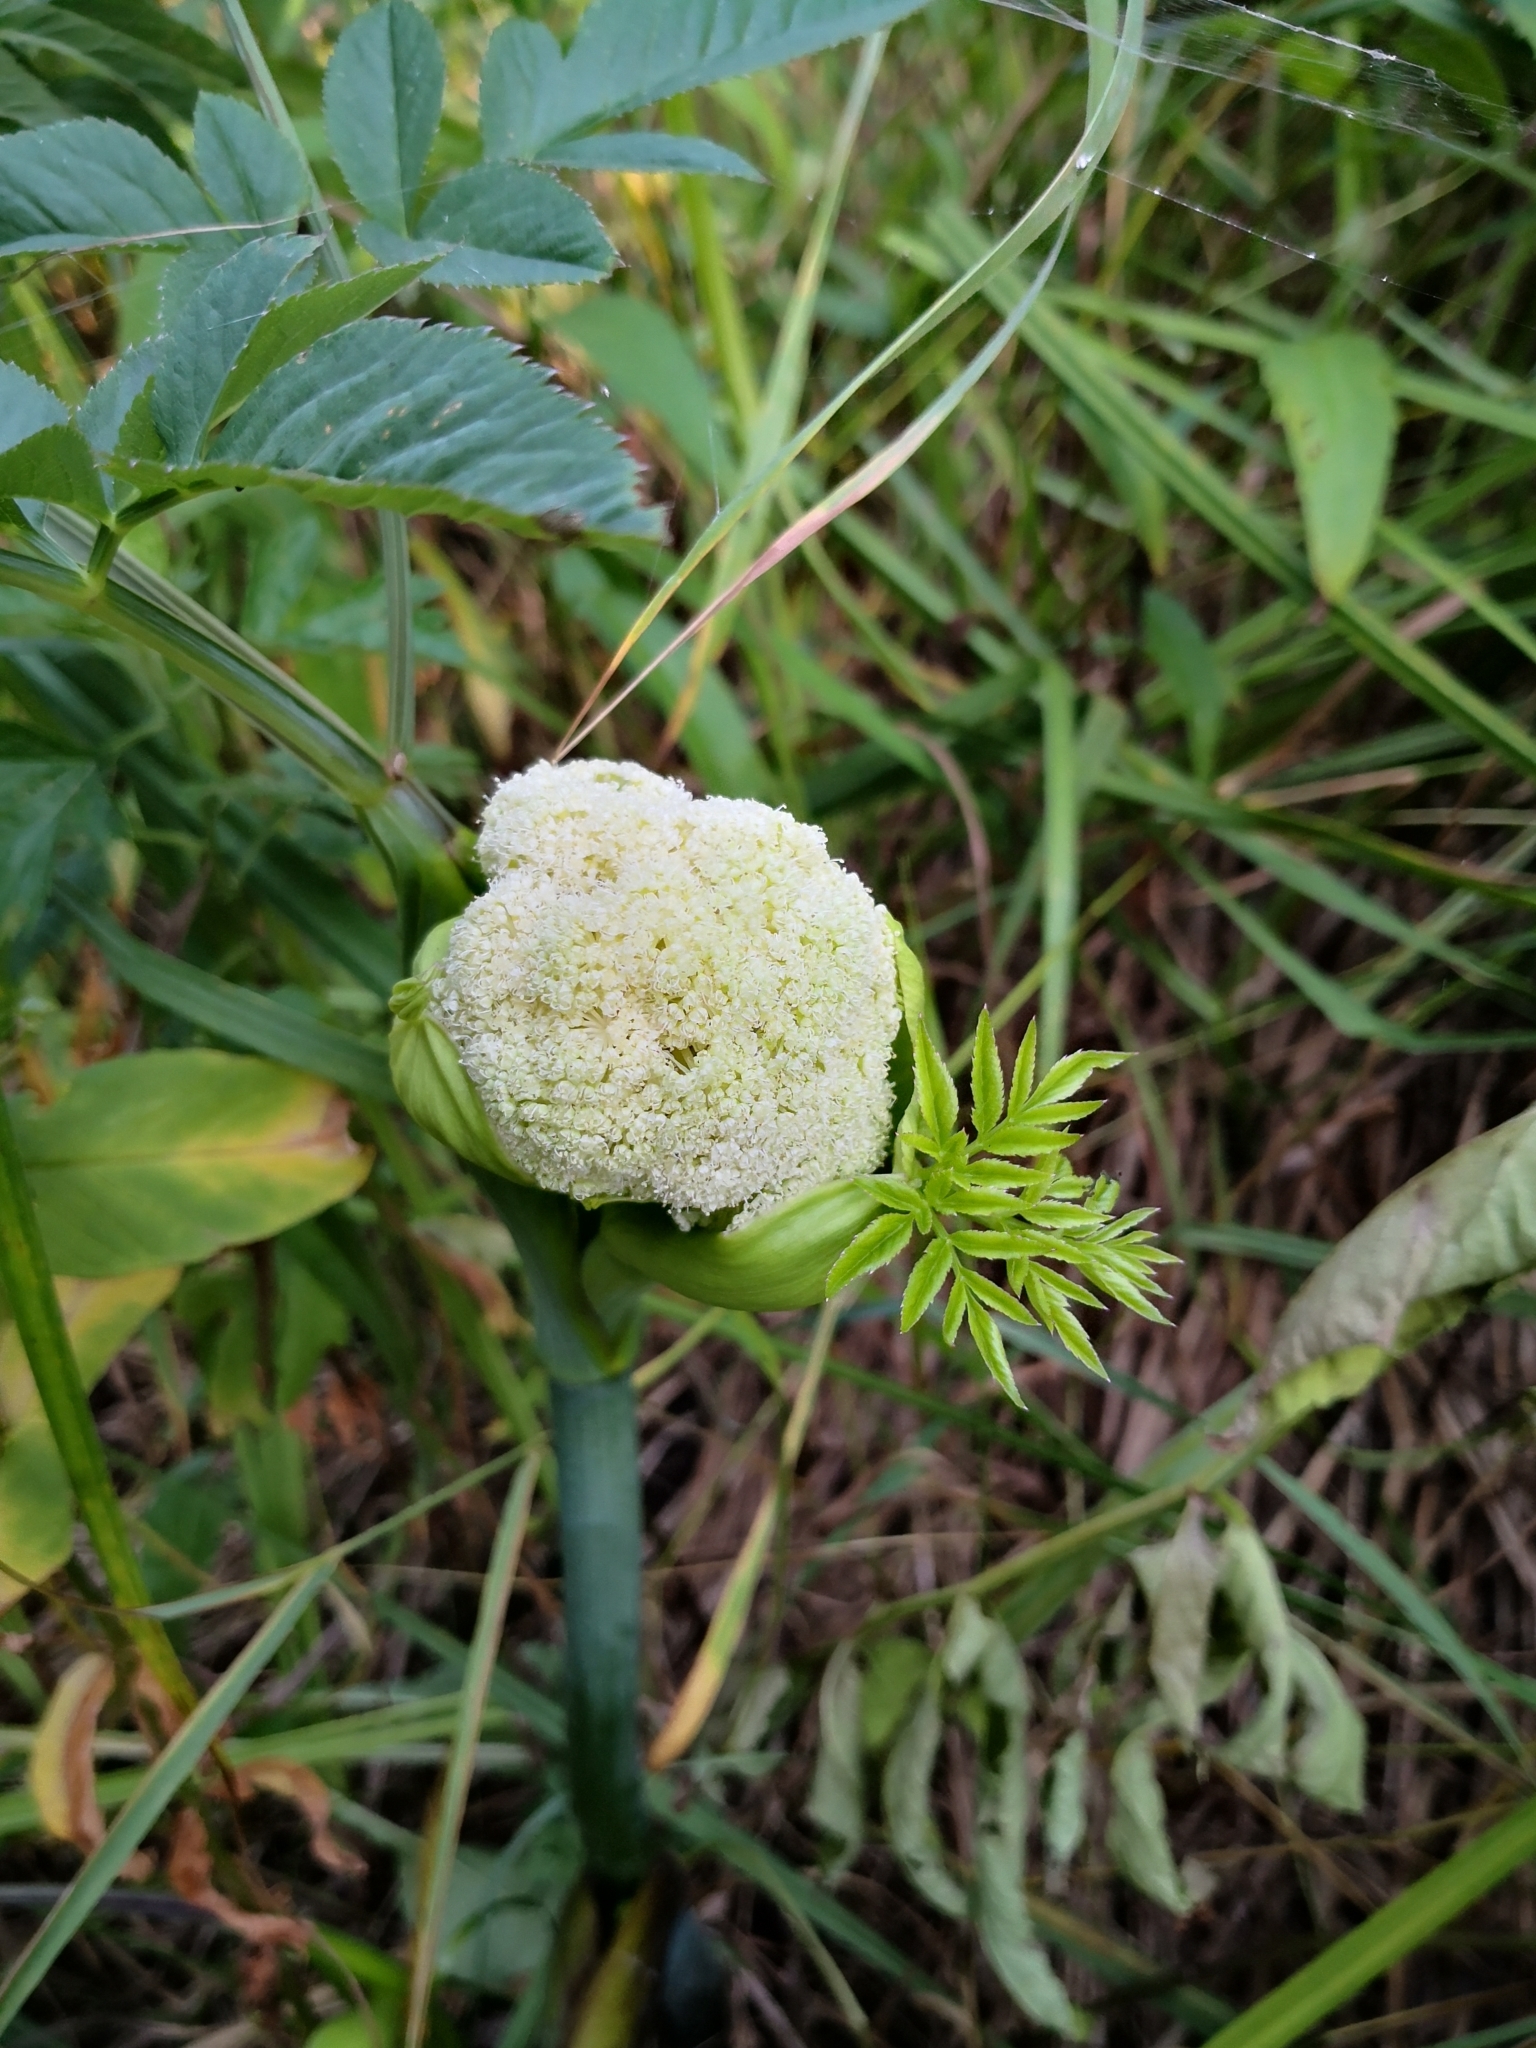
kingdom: Plantae
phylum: Tracheophyta
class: Magnoliopsida
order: Apiales
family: Apiaceae
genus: Angelica
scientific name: Angelica sylvestris
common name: Wild angelica
